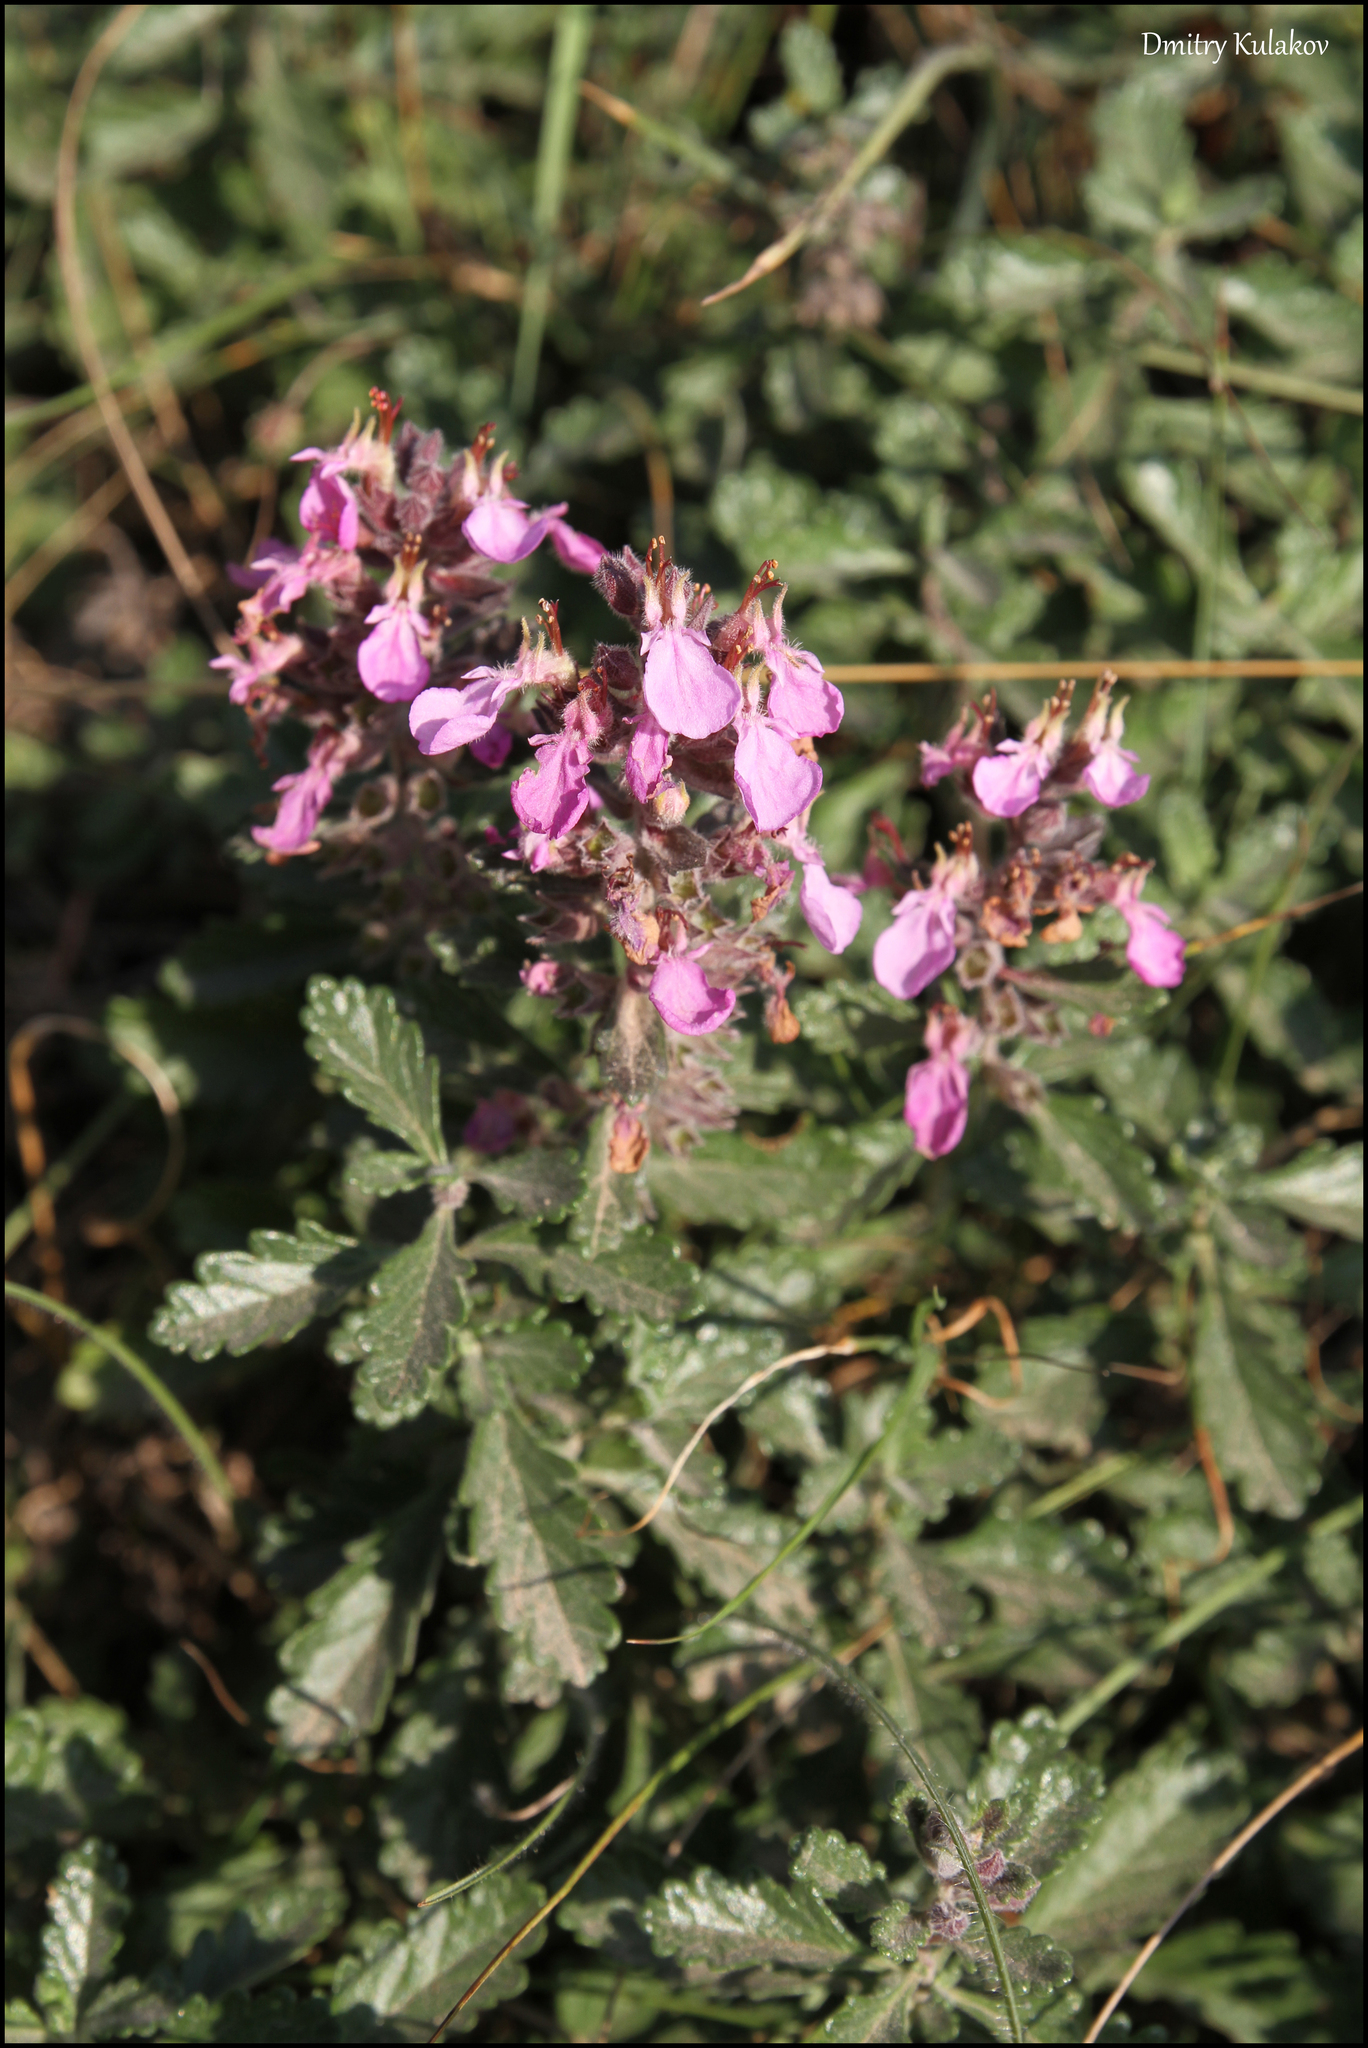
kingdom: Plantae
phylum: Tracheophyta
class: Magnoliopsida
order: Lamiales
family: Lamiaceae
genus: Teucrium
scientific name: Teucrium chamaedrys
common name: Wall germander
